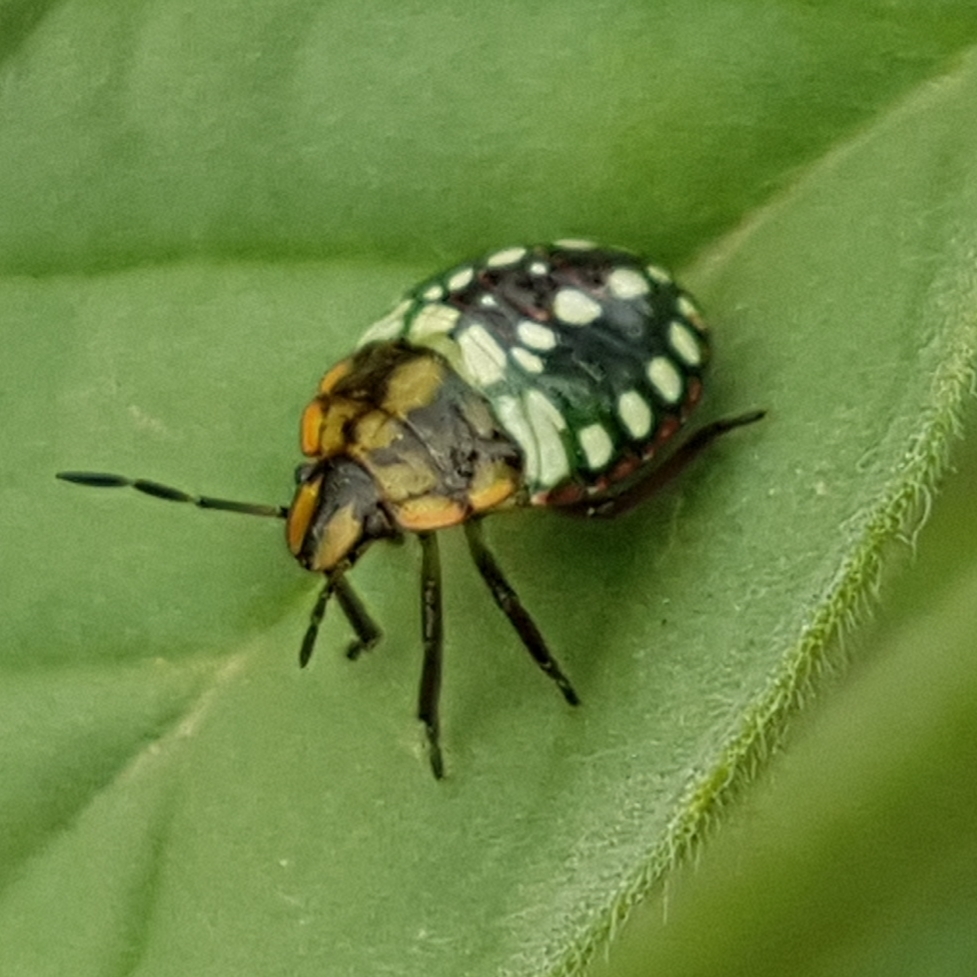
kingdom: Animalia
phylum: Arthropoda
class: Insecta
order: Hemiptera
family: Pentatomidae
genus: Nezara
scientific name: Nezara viridula
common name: Southern green stink bug
